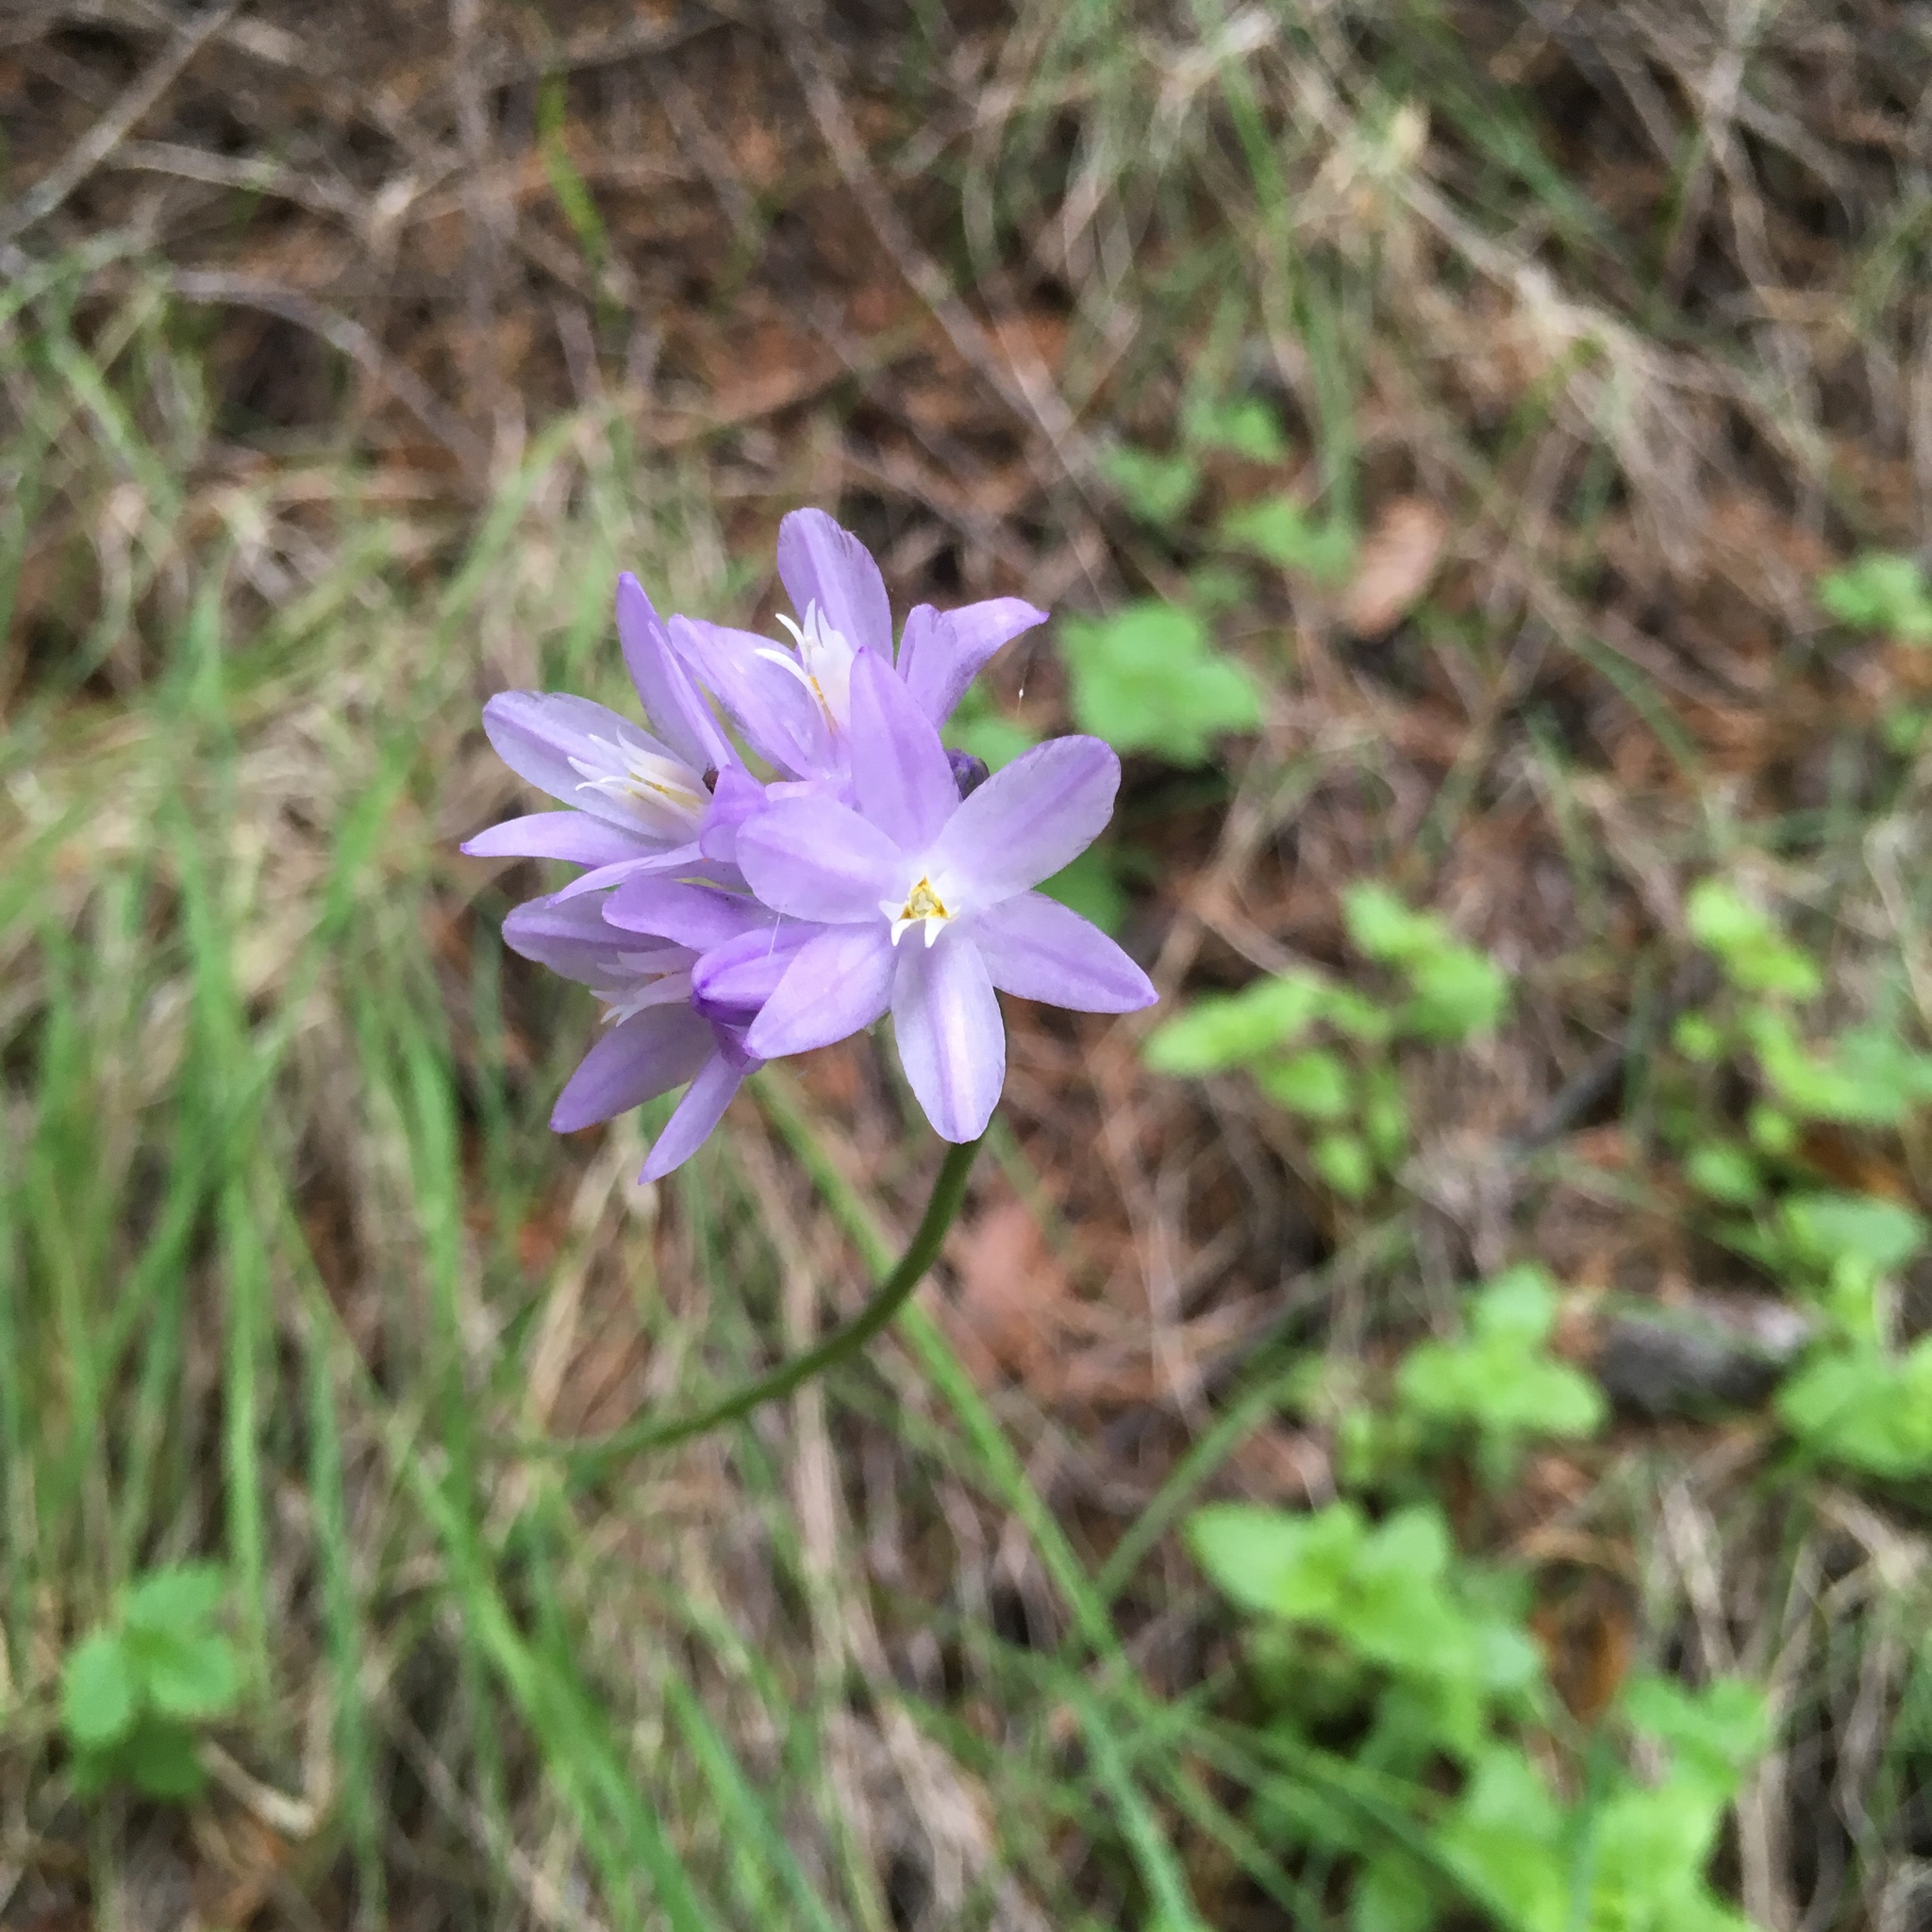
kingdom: Plantae
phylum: Tracheophyta
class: Liliopsida
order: Asparagales
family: Asparagaceae
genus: Dipterostemon
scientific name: Dipterostemon capitatus
